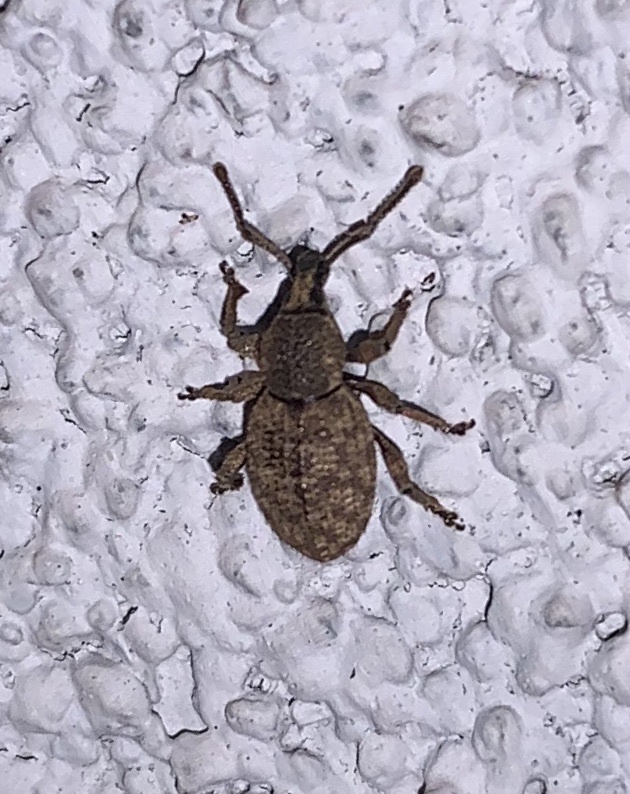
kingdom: Animalia
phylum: Arthropoda
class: Insecta
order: Coleoptera
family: Curculionidae
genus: Otiorhynchus
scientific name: Otiorhynchus singularis
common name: Clay-coloured weevil
